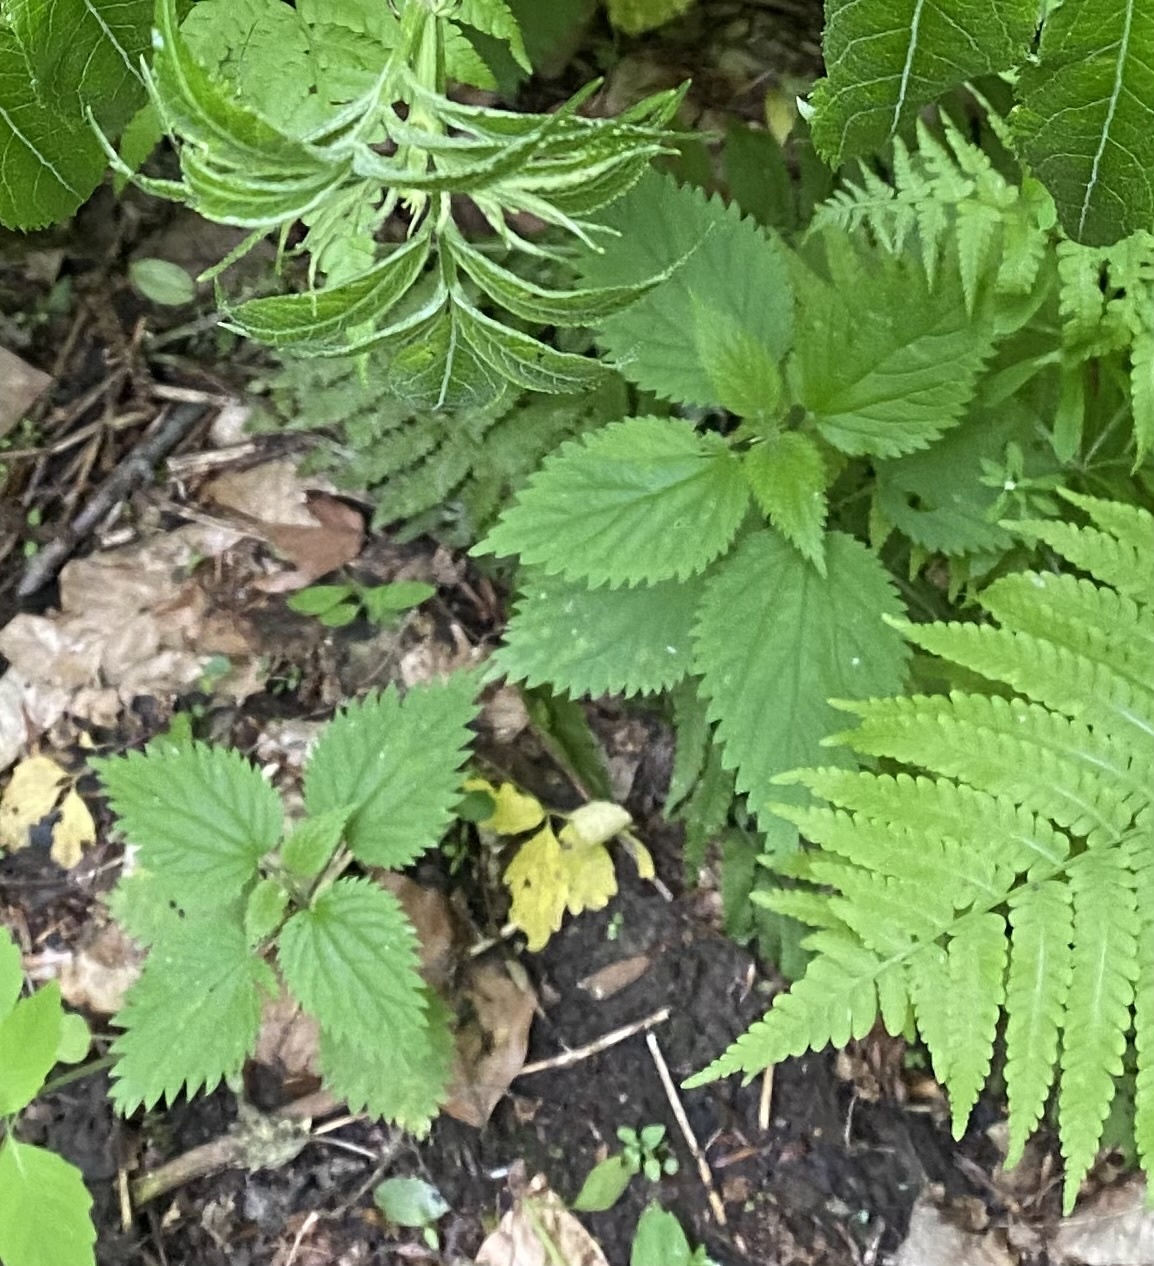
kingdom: Plantae
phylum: Tracheophyta
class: Magnoliopsida
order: Rosales
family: Urticaceae
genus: Urtica
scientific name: Urtica dioica
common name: Common nettle
